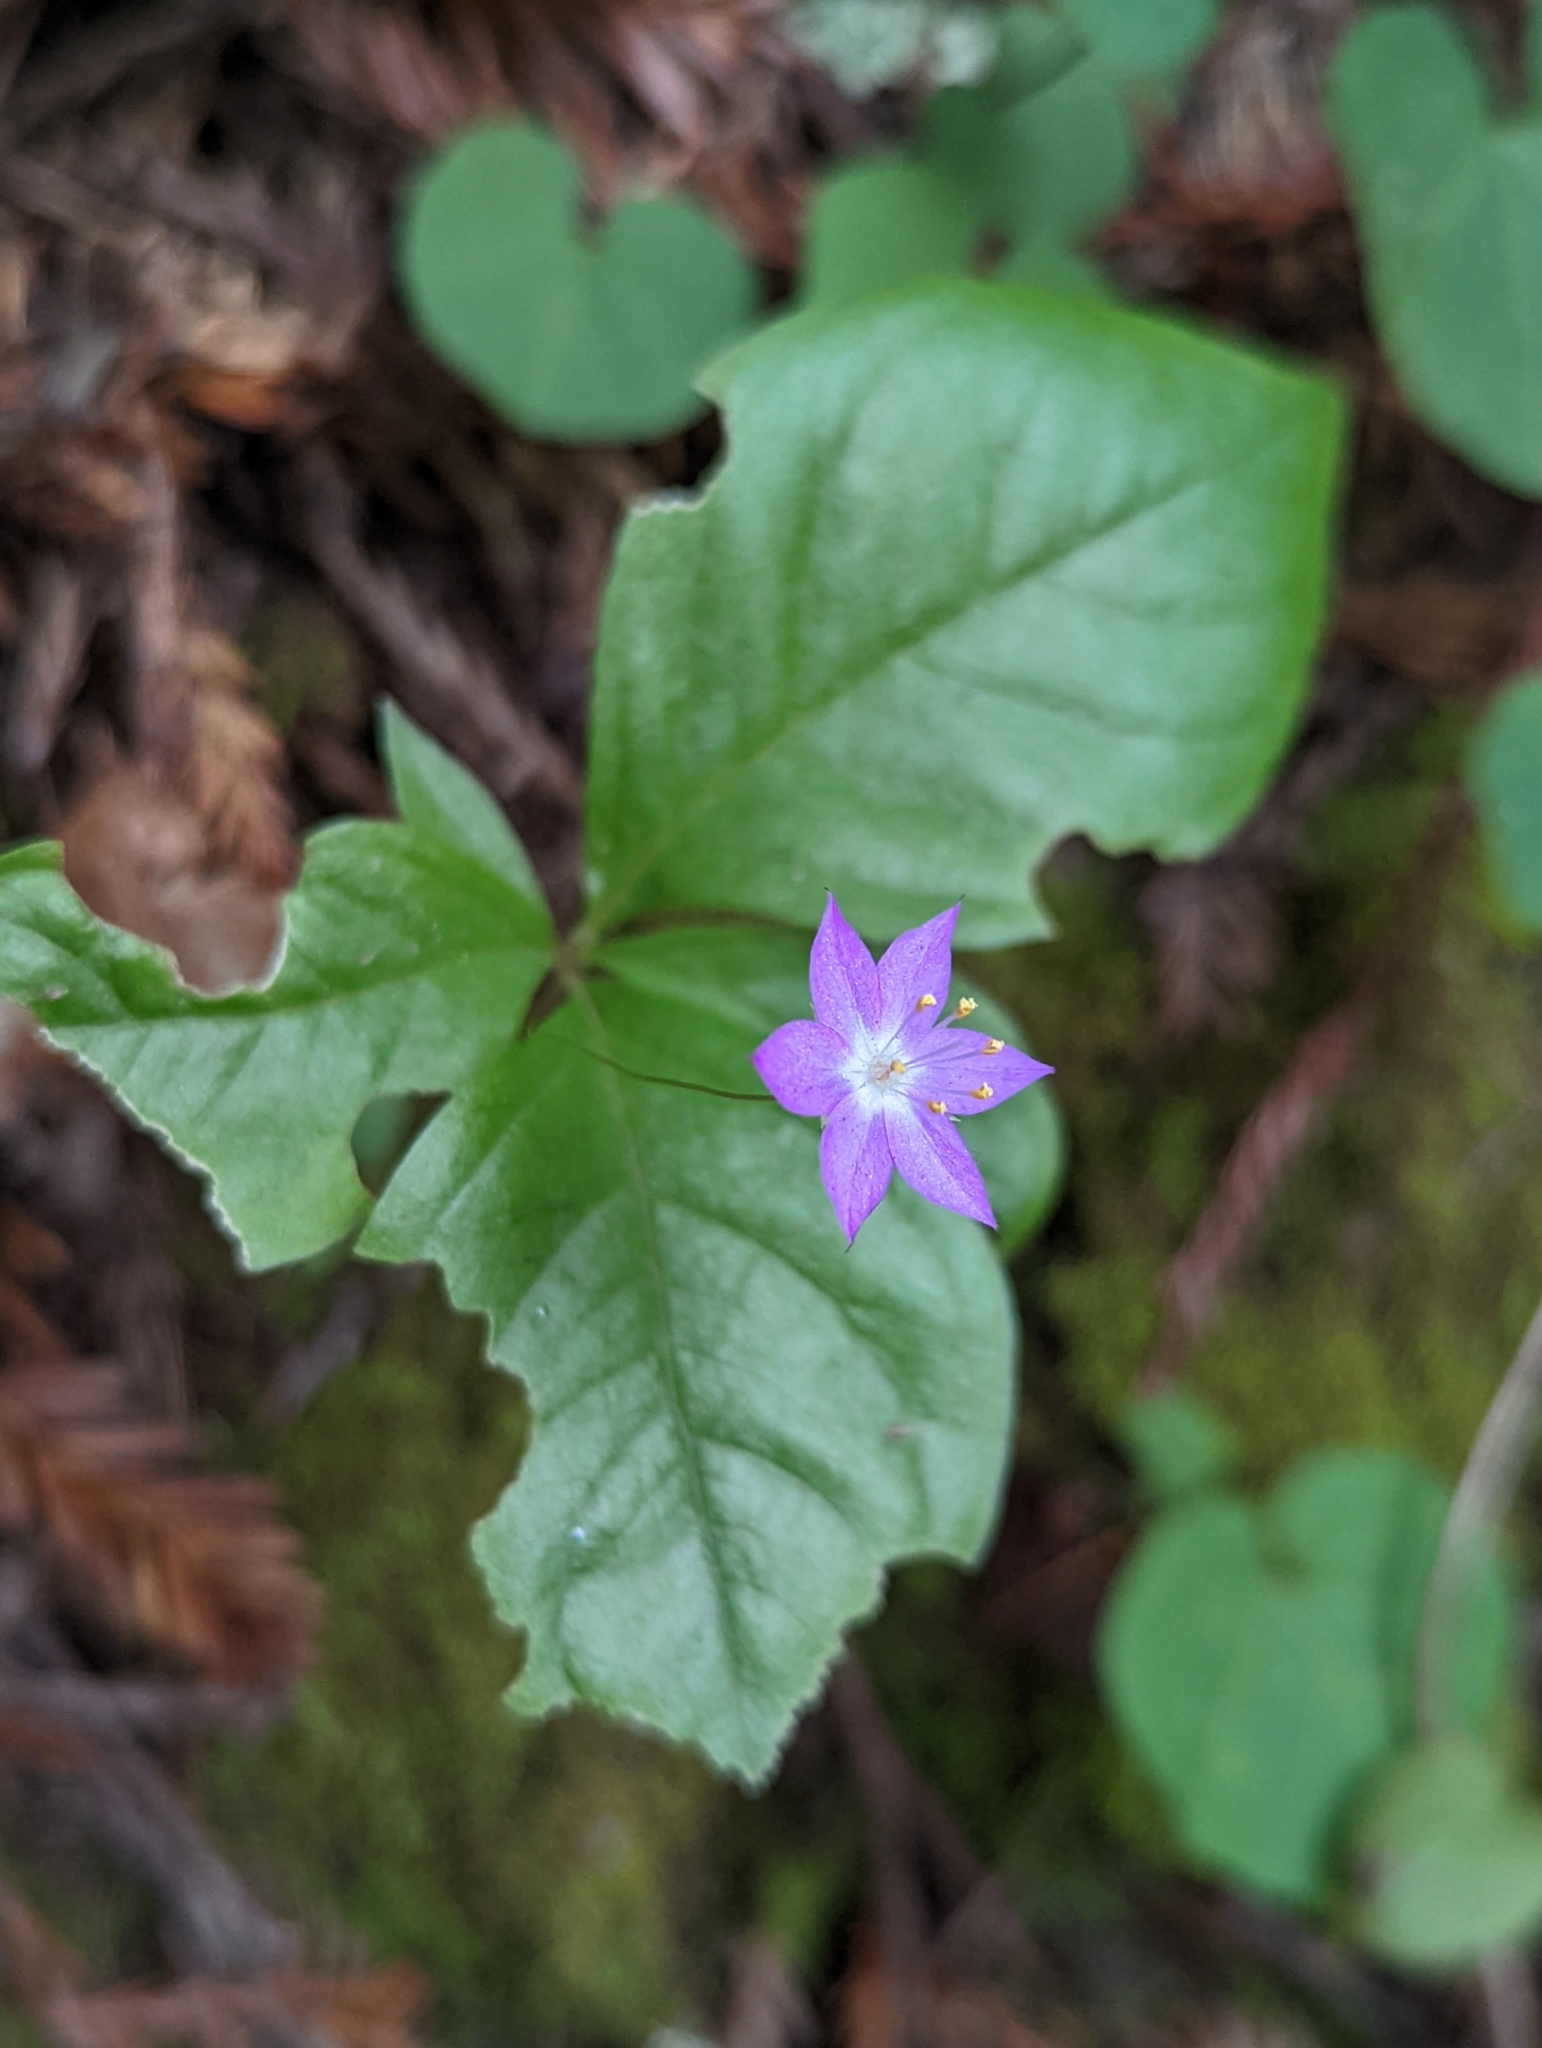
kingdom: Plantae
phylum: Tracheophyta
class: Magnoliopsida
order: Ericales
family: Primulaceae
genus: Lysimachia
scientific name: Lysimachia latifolia
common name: Pacific starflower
